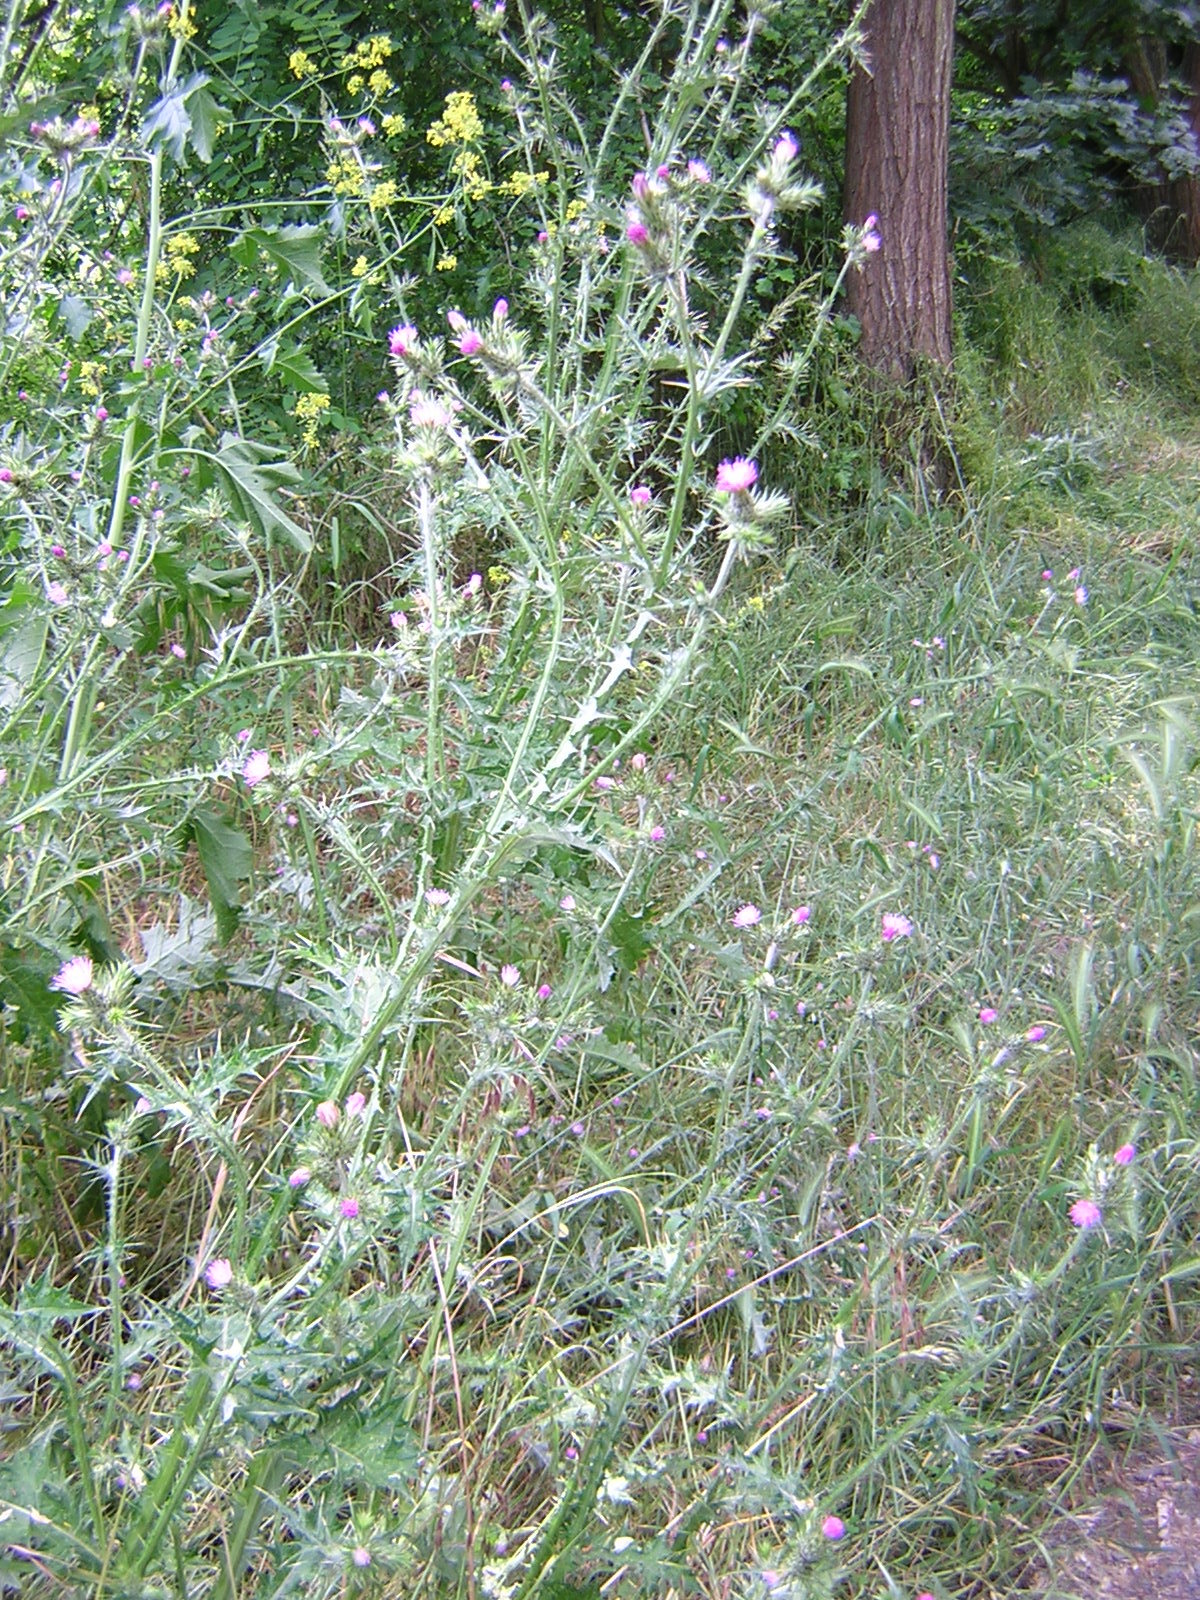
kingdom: Plantae
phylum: Tracheophyta
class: Magnoliopsida
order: Asterales
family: Asteraceae
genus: Carduus
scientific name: Carduus tenuiflorus
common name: Slender thistle
